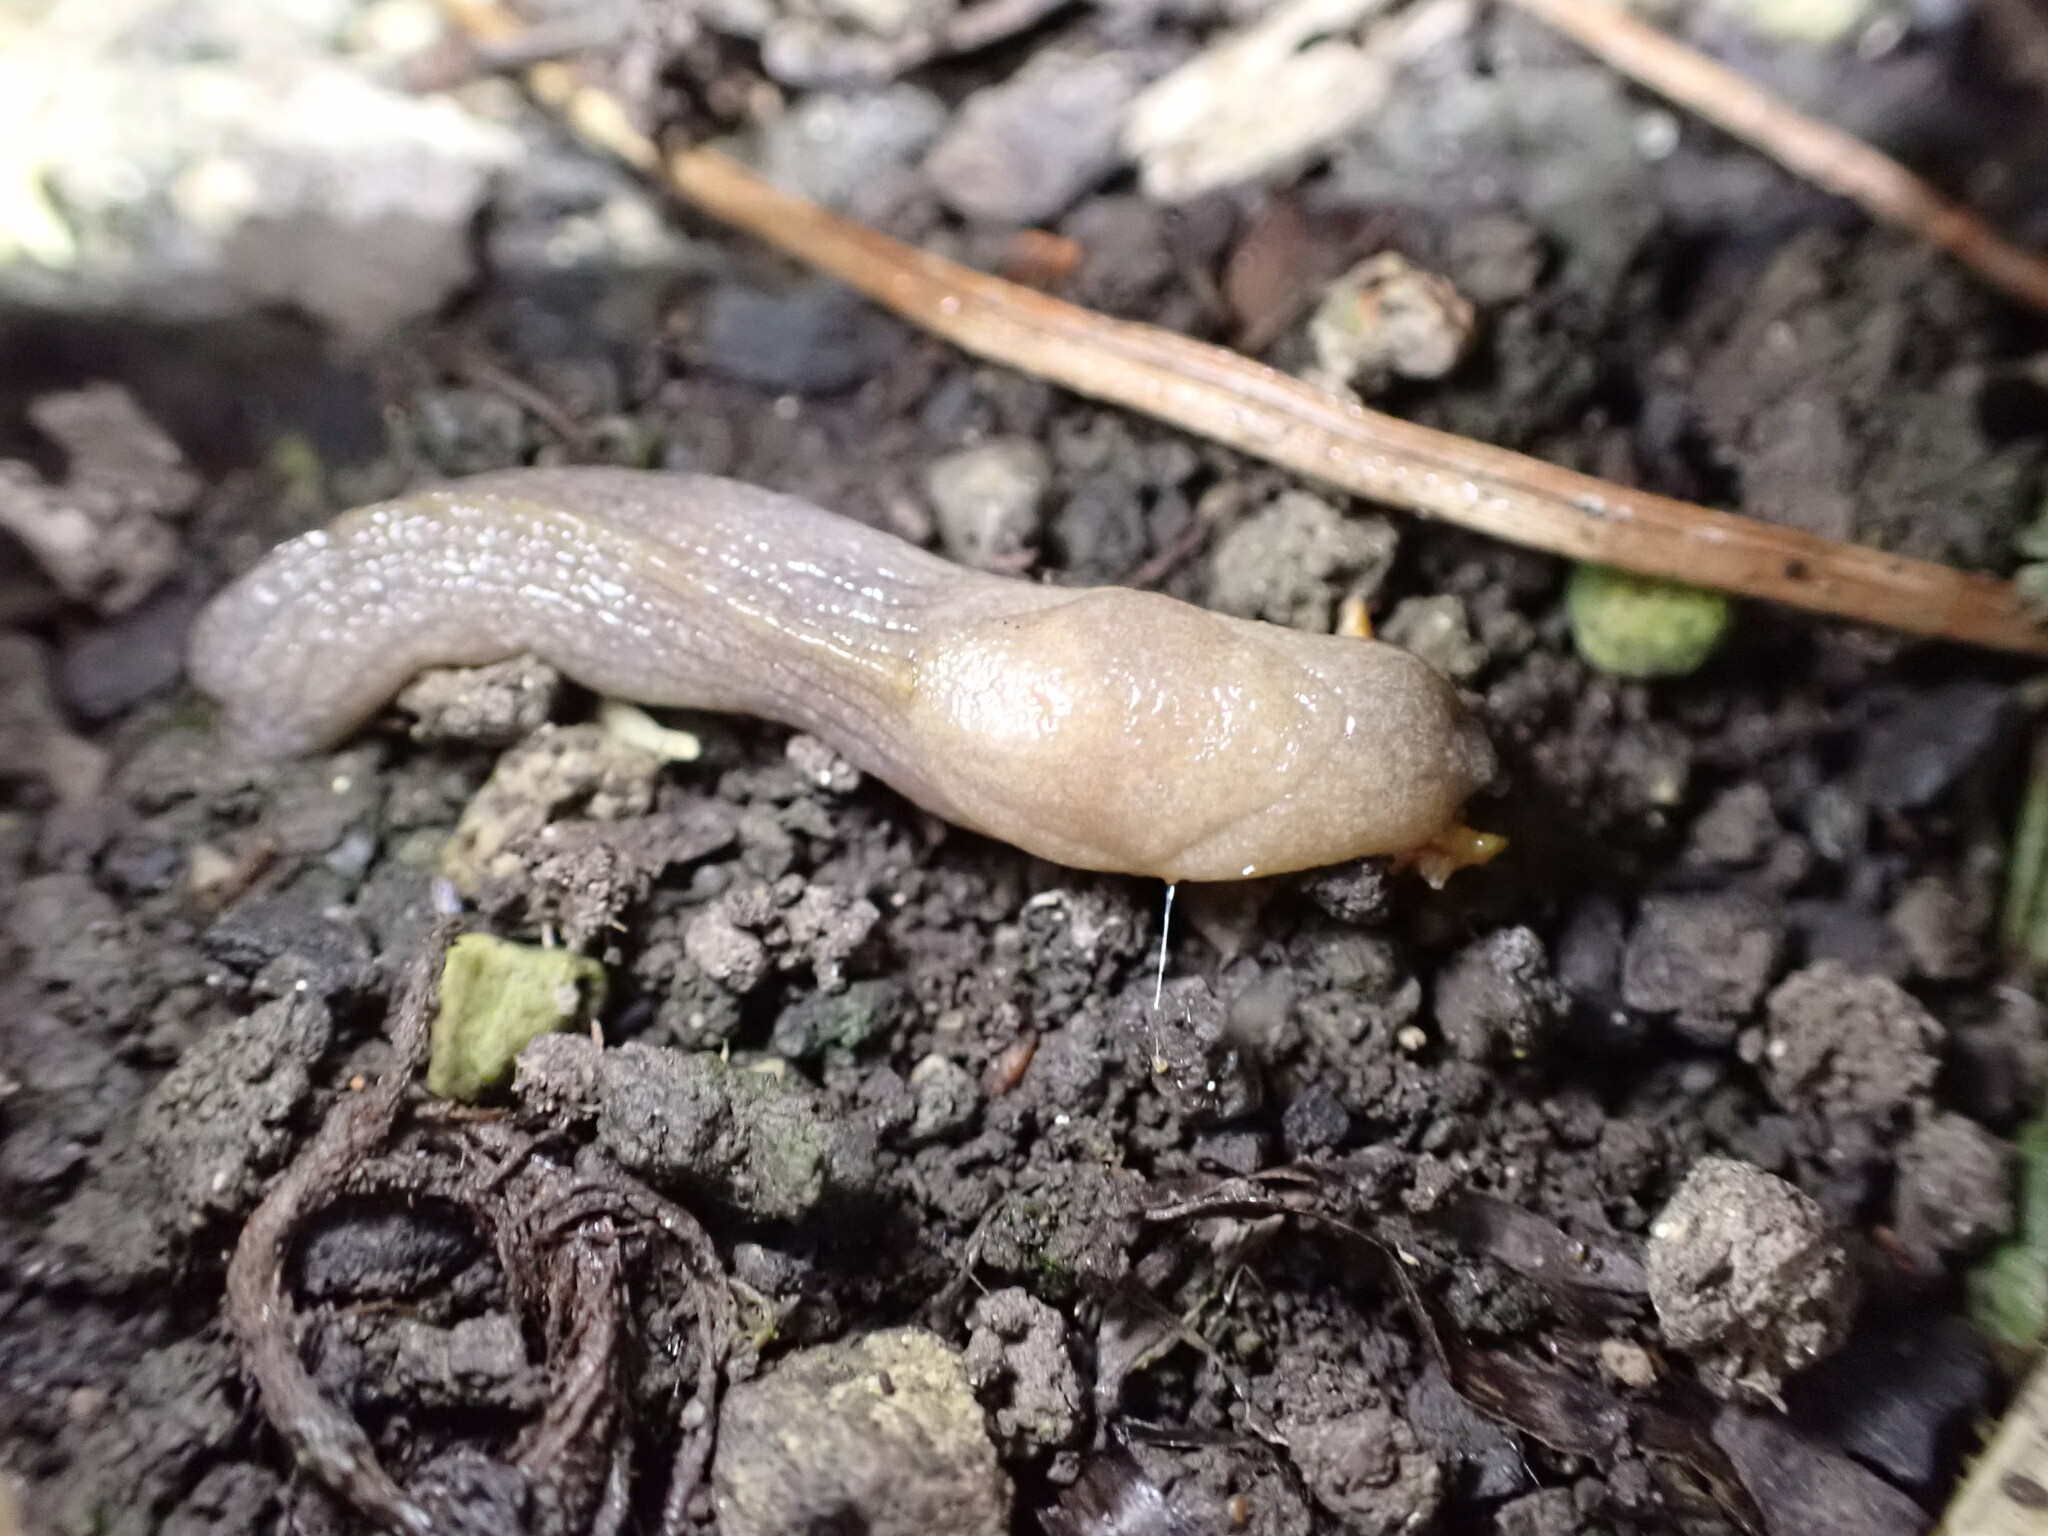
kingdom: Animalia
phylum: Mollusca
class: Gastropoda
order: Stylommatophora
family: Milacidae
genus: Milax
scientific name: Milax gagates
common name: Greenhouse slug
